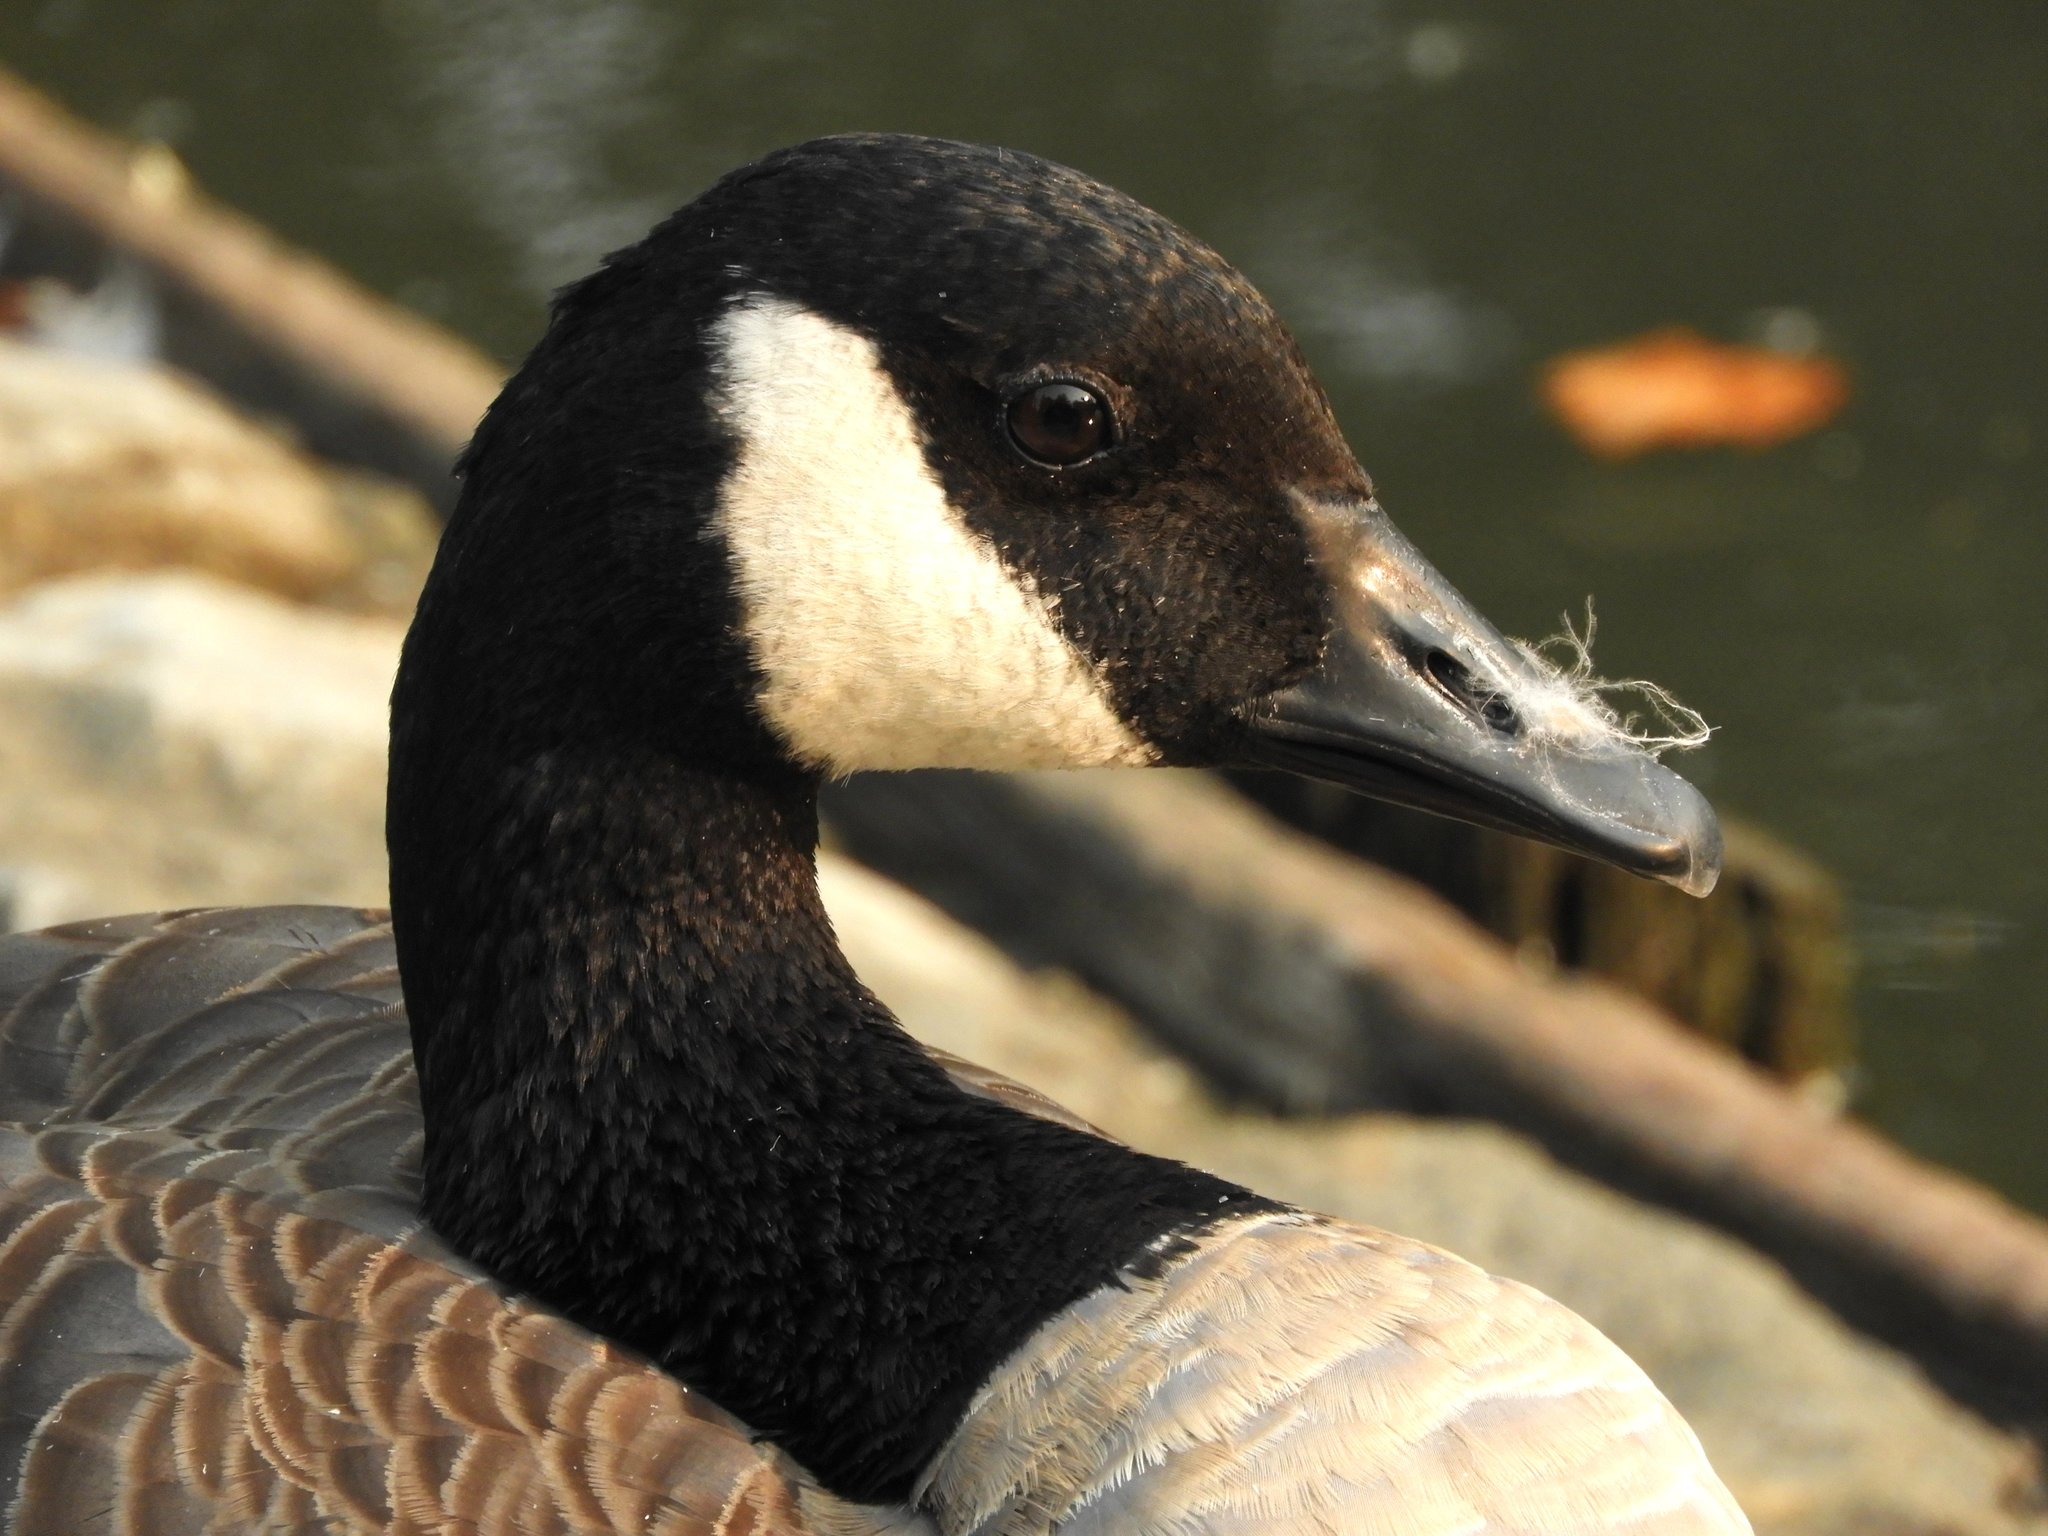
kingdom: Animalia
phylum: Chordata
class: Aves
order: Anseriformes
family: Anatidae
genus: Branta
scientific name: Branta canadensis
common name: Canada goose
